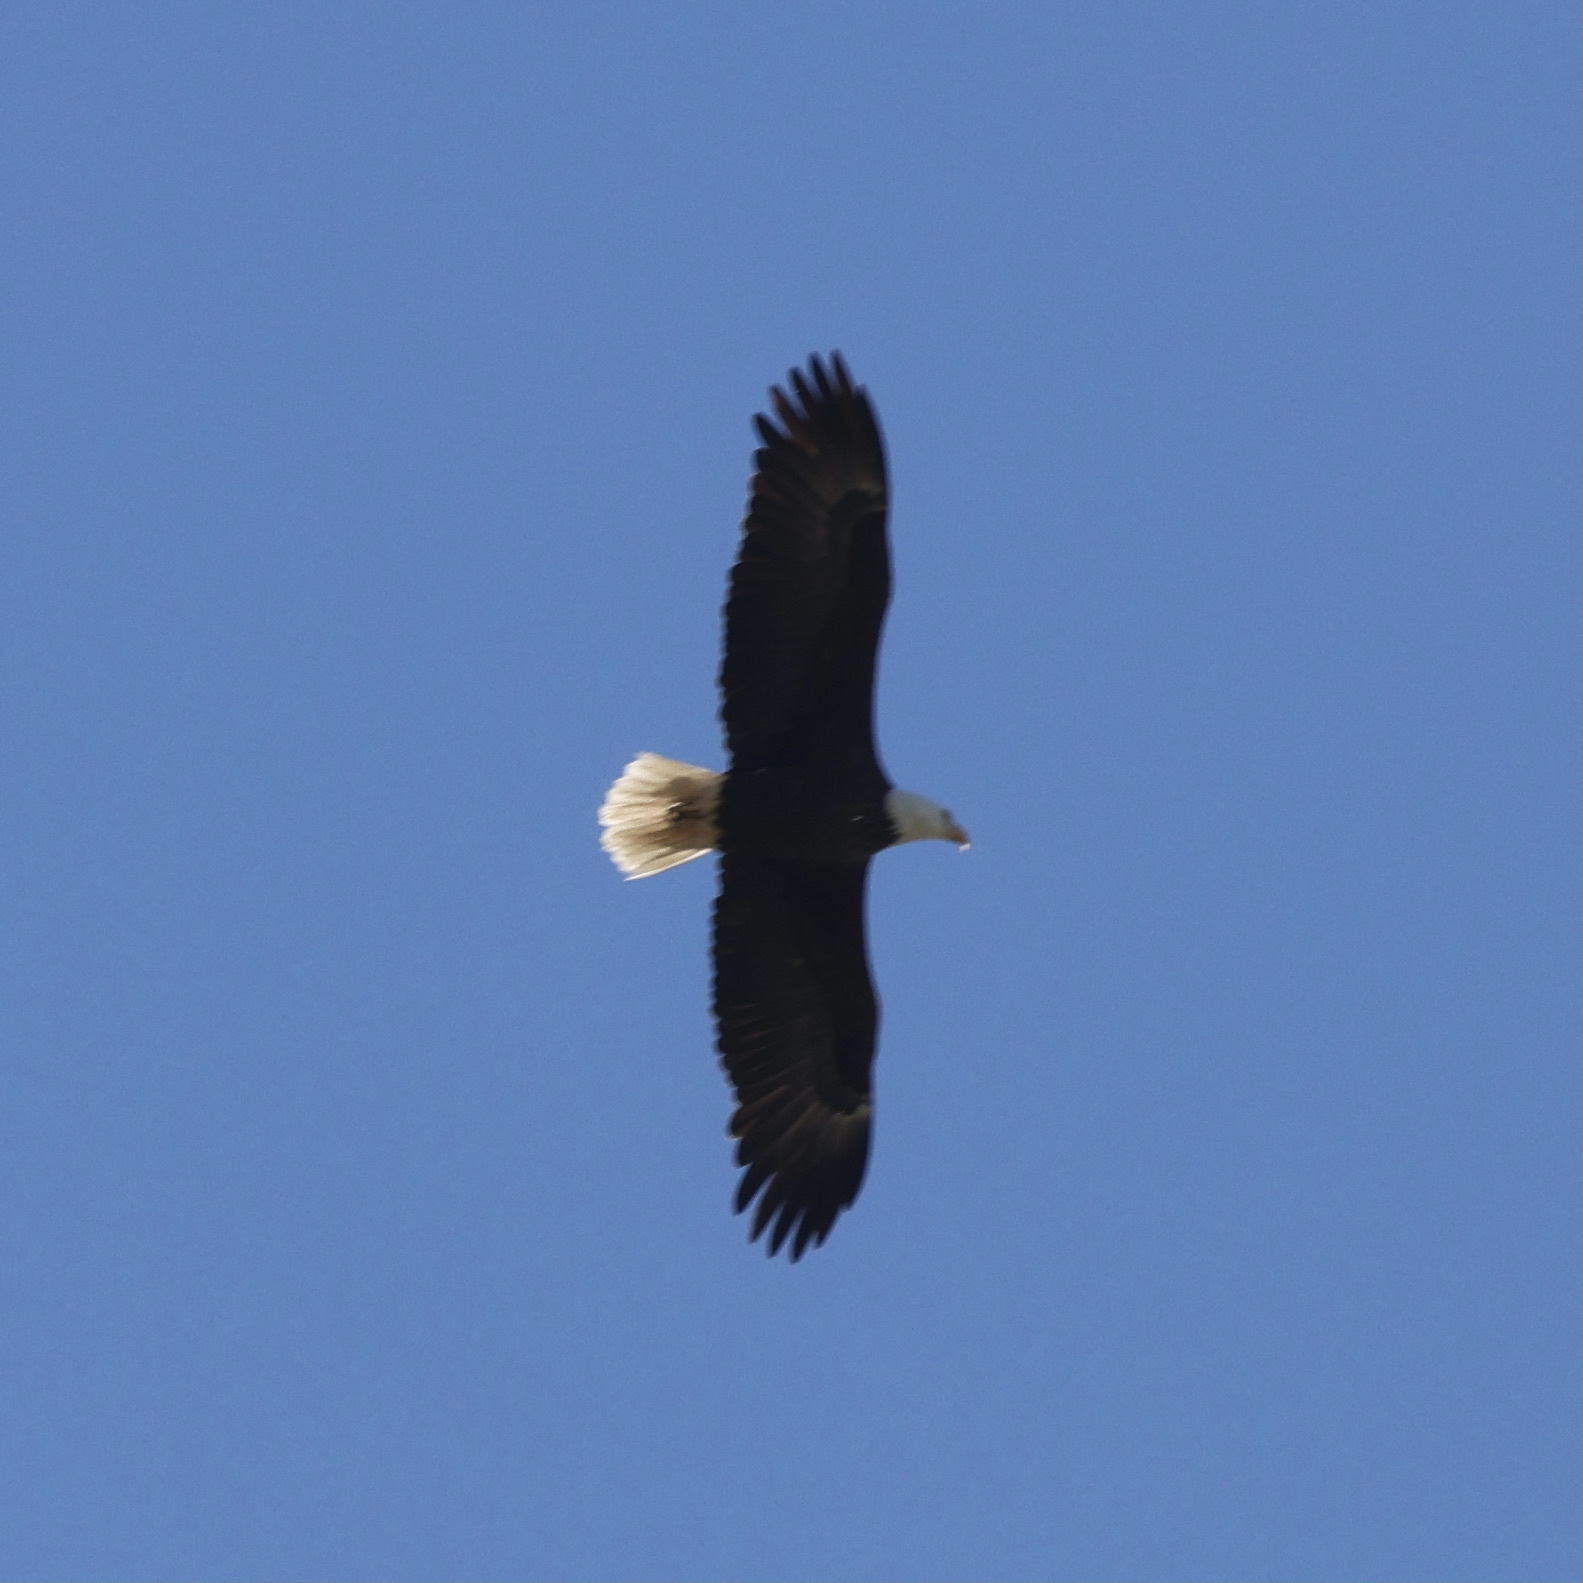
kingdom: Animalia
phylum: Chordata
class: Aves
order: Accipitriformes
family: Accipitridae
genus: Haliaeetus
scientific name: Haliaeetus leucocephalus
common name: Bald eagle
